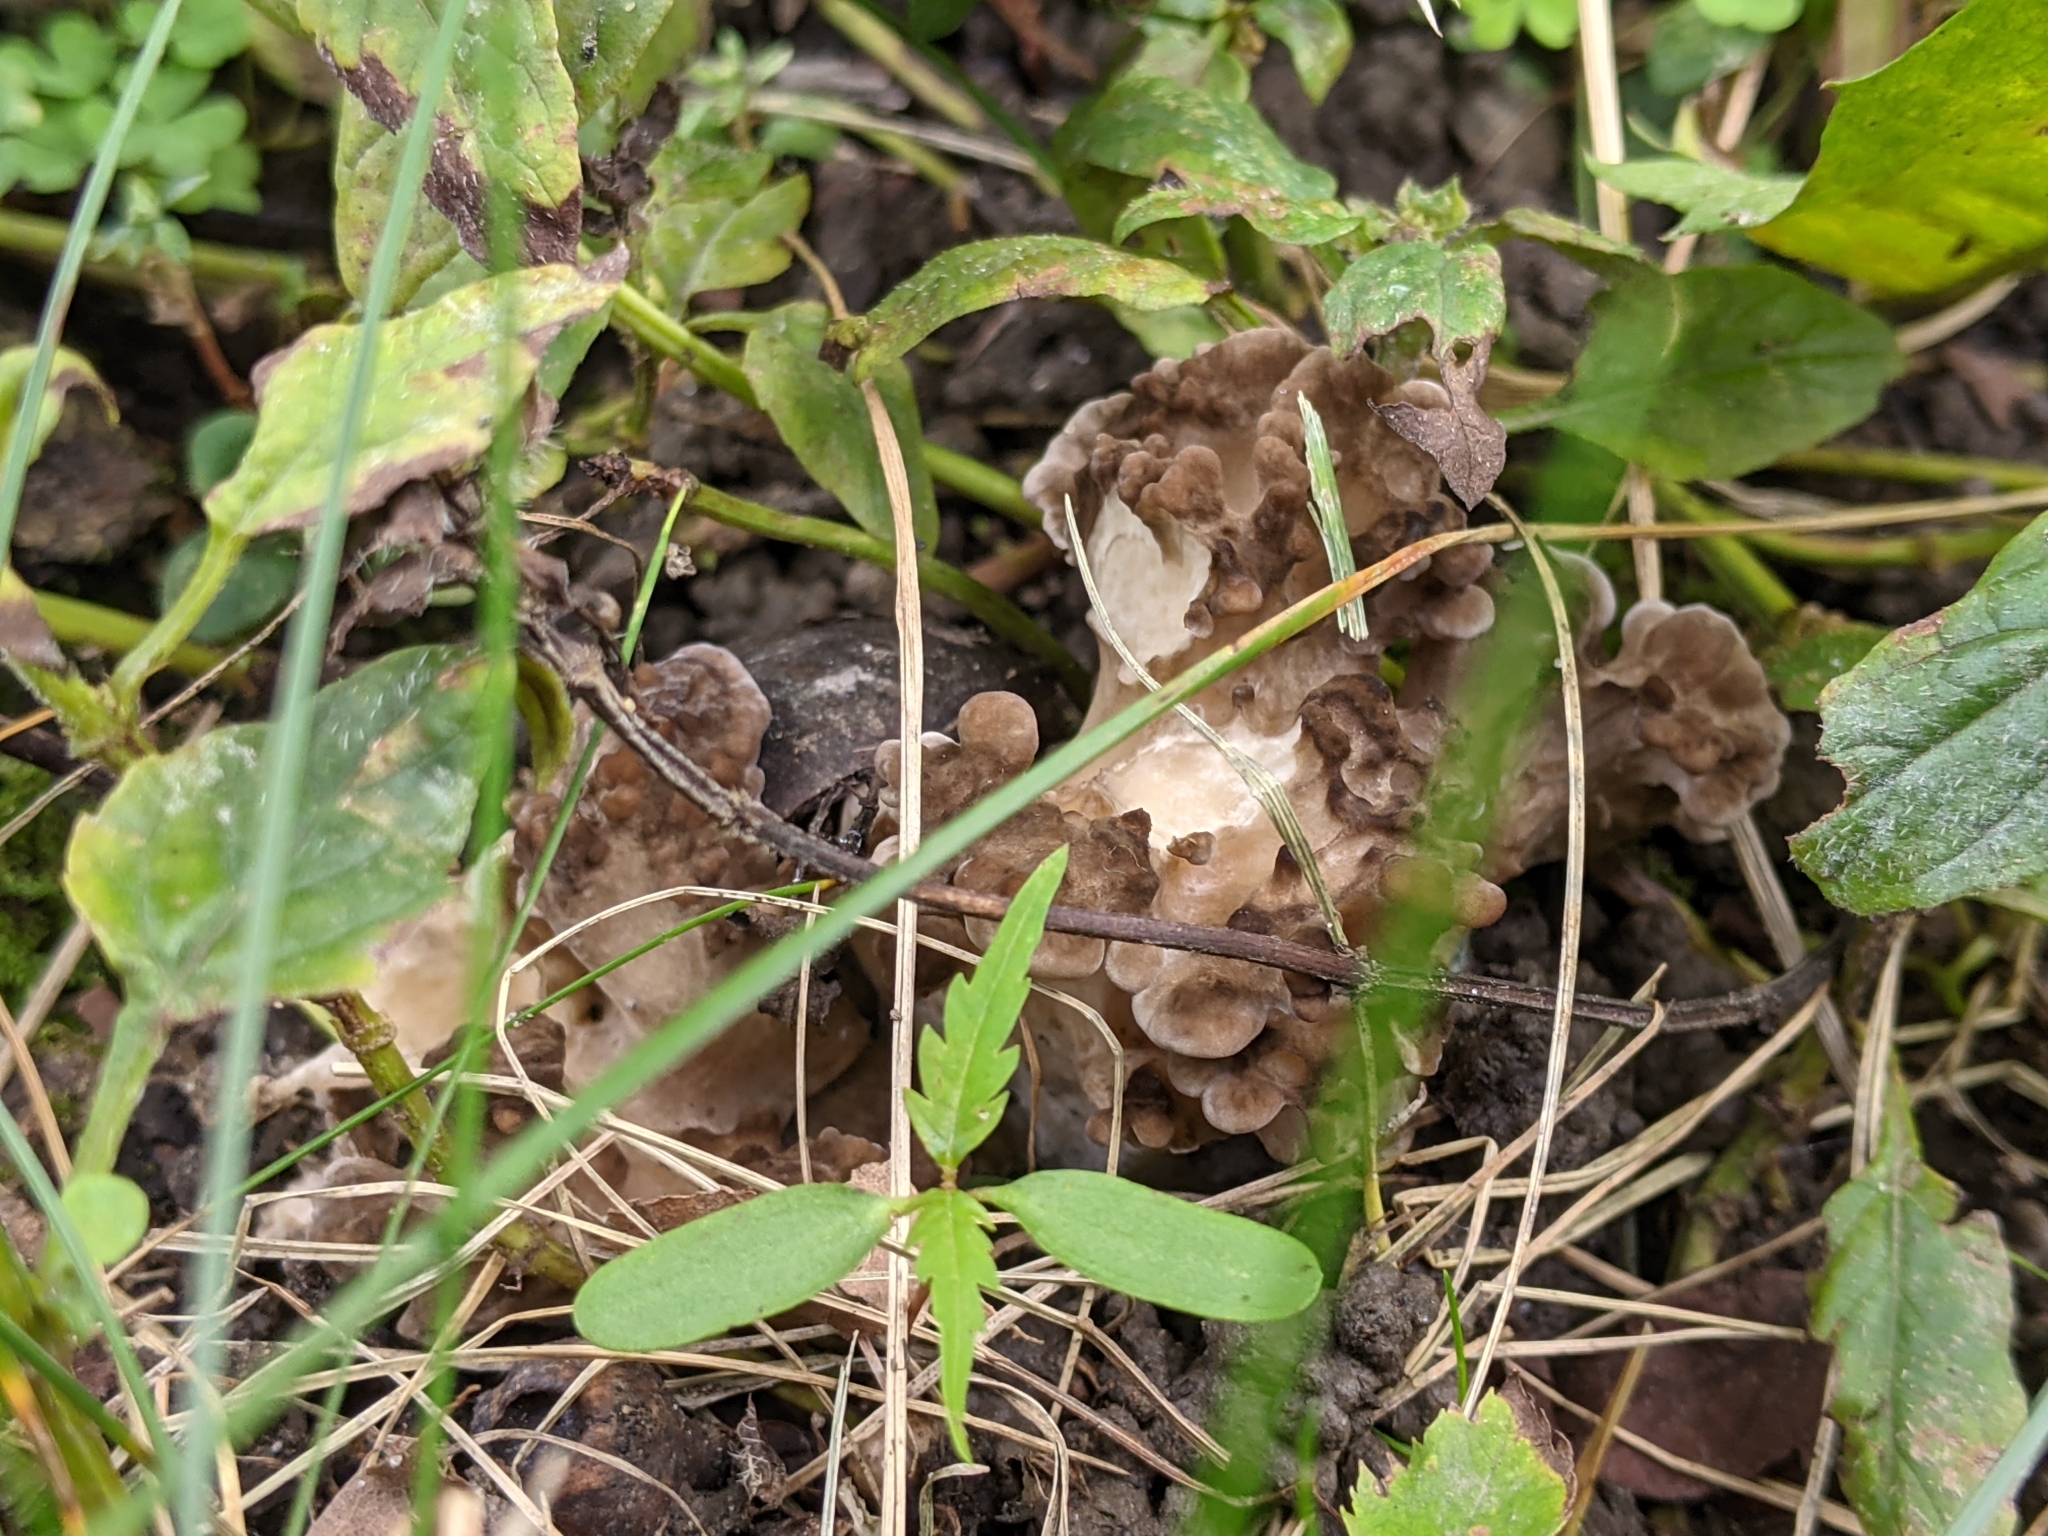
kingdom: Fungi
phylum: Basidiomycota
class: Agaricomycetes
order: Polyporales
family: Grifolaceae
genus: Grifola
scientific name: Grifola frondosa
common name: Hen of the woods
